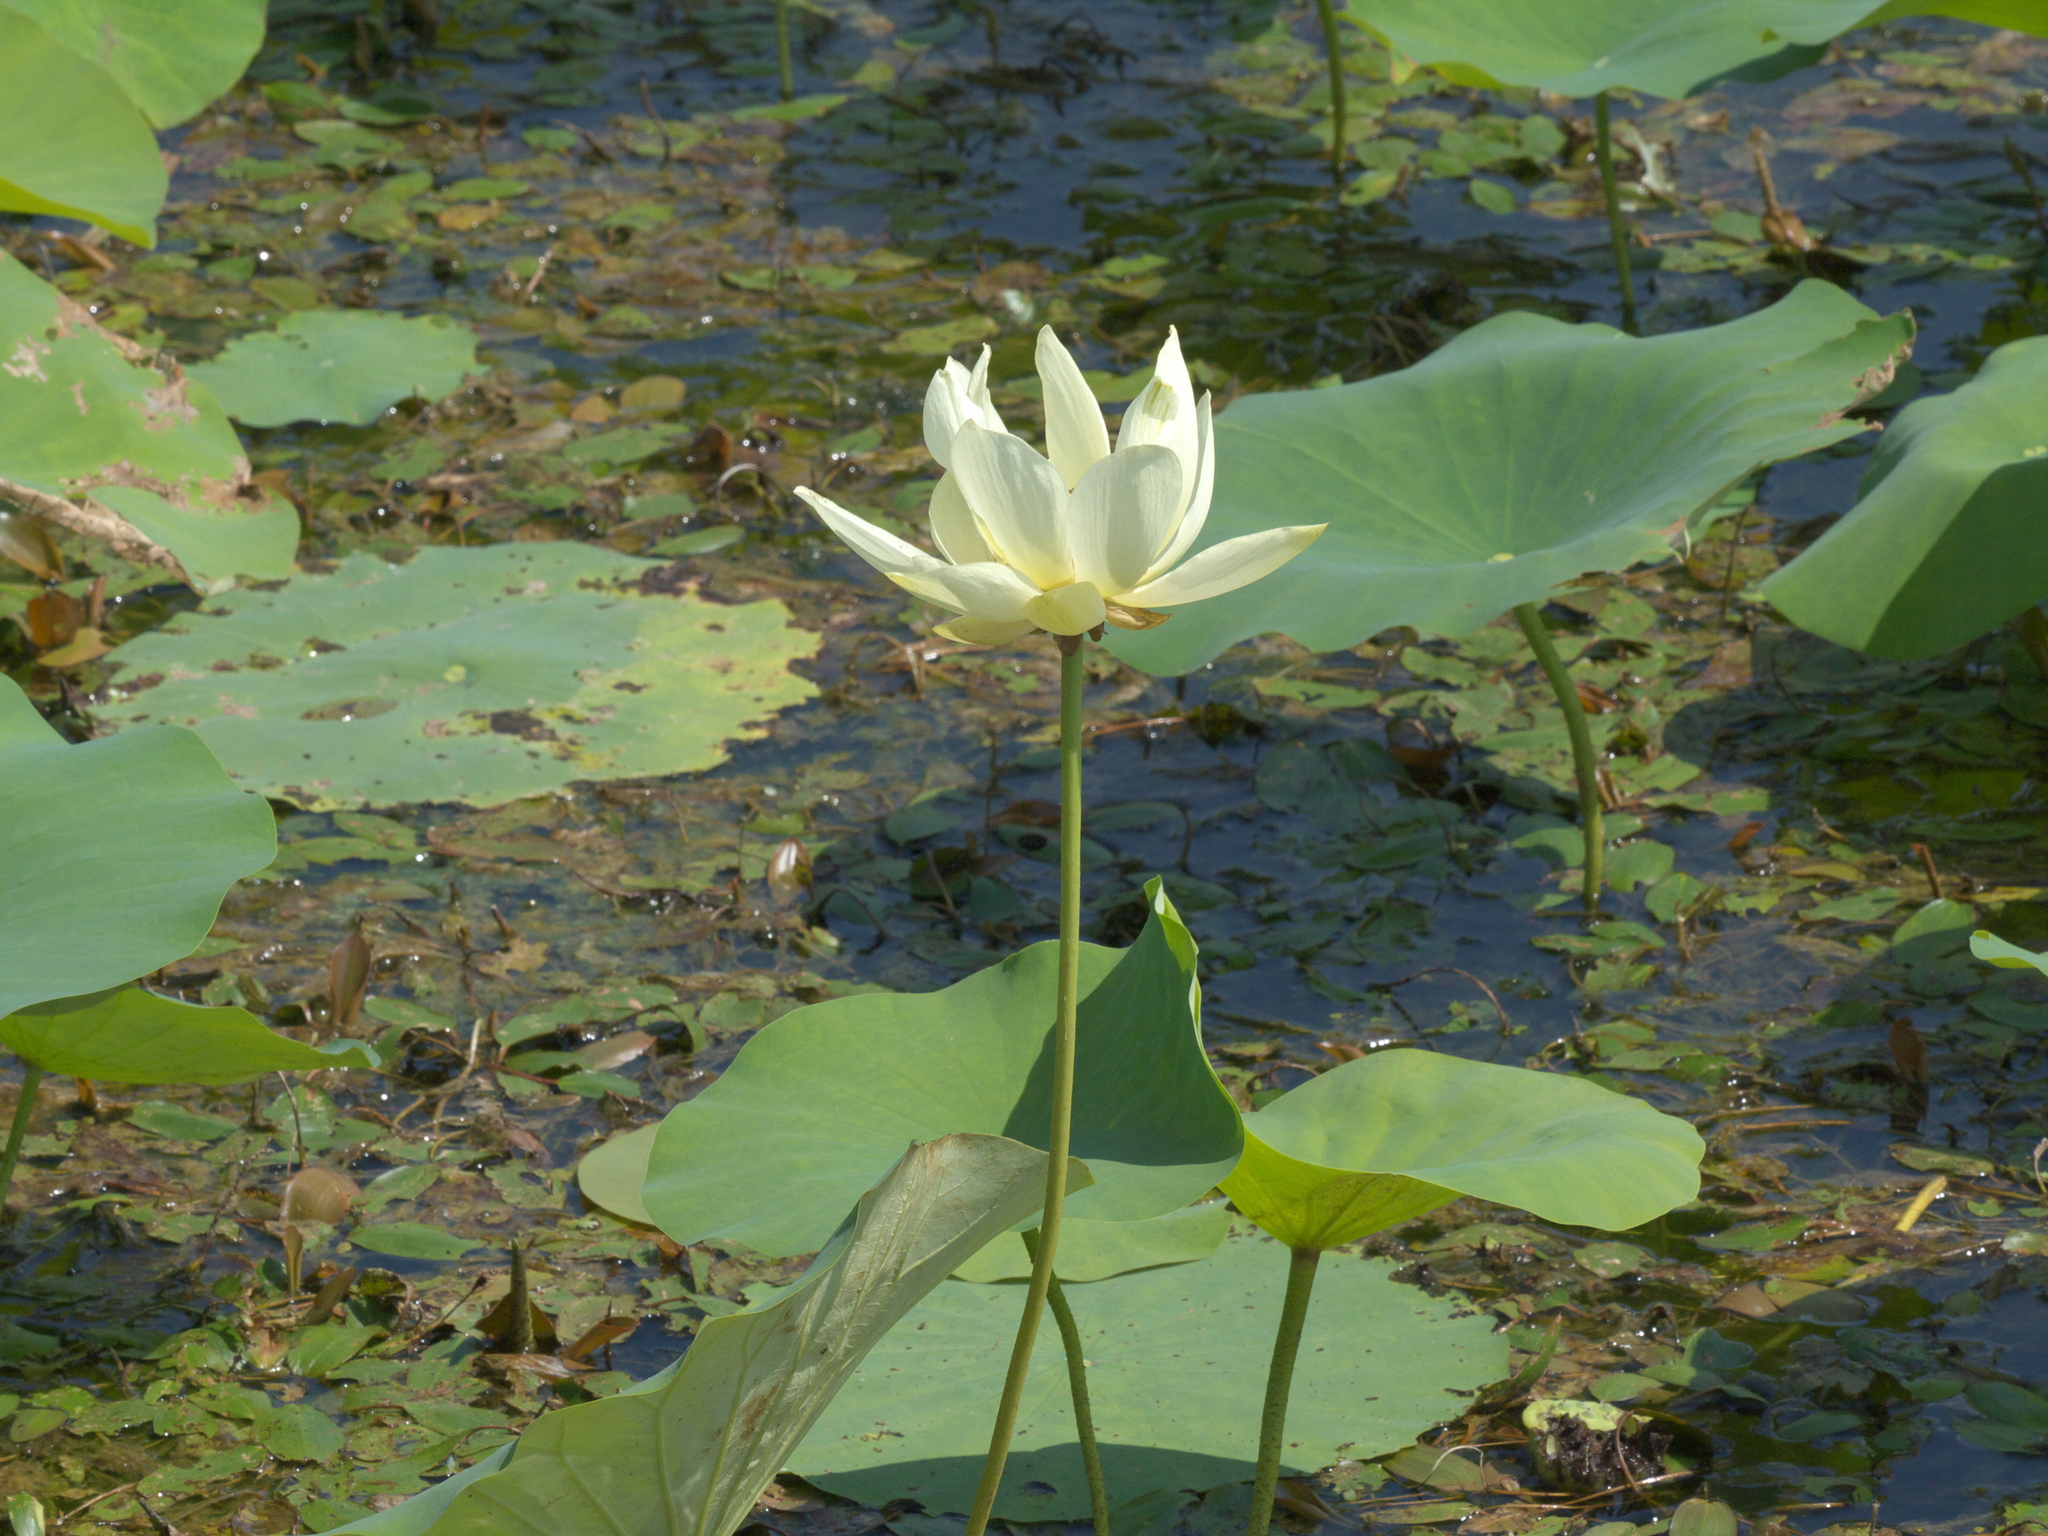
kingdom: Plantae
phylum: Tracheophyta
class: Magnoliopsida
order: Proteales
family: Nelumbonaceae
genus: Nelumbo
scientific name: Nelumbo lutea
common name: American lotus
